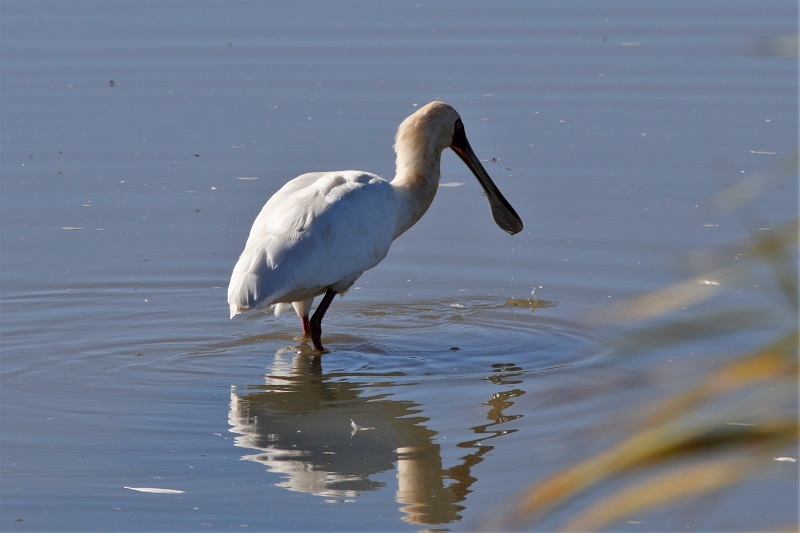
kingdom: Animalia
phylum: Chordata
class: Aves
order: Pelecaniformes
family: Threskiornithidae
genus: Platalea
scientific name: Platalea alba
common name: African spoonbill
